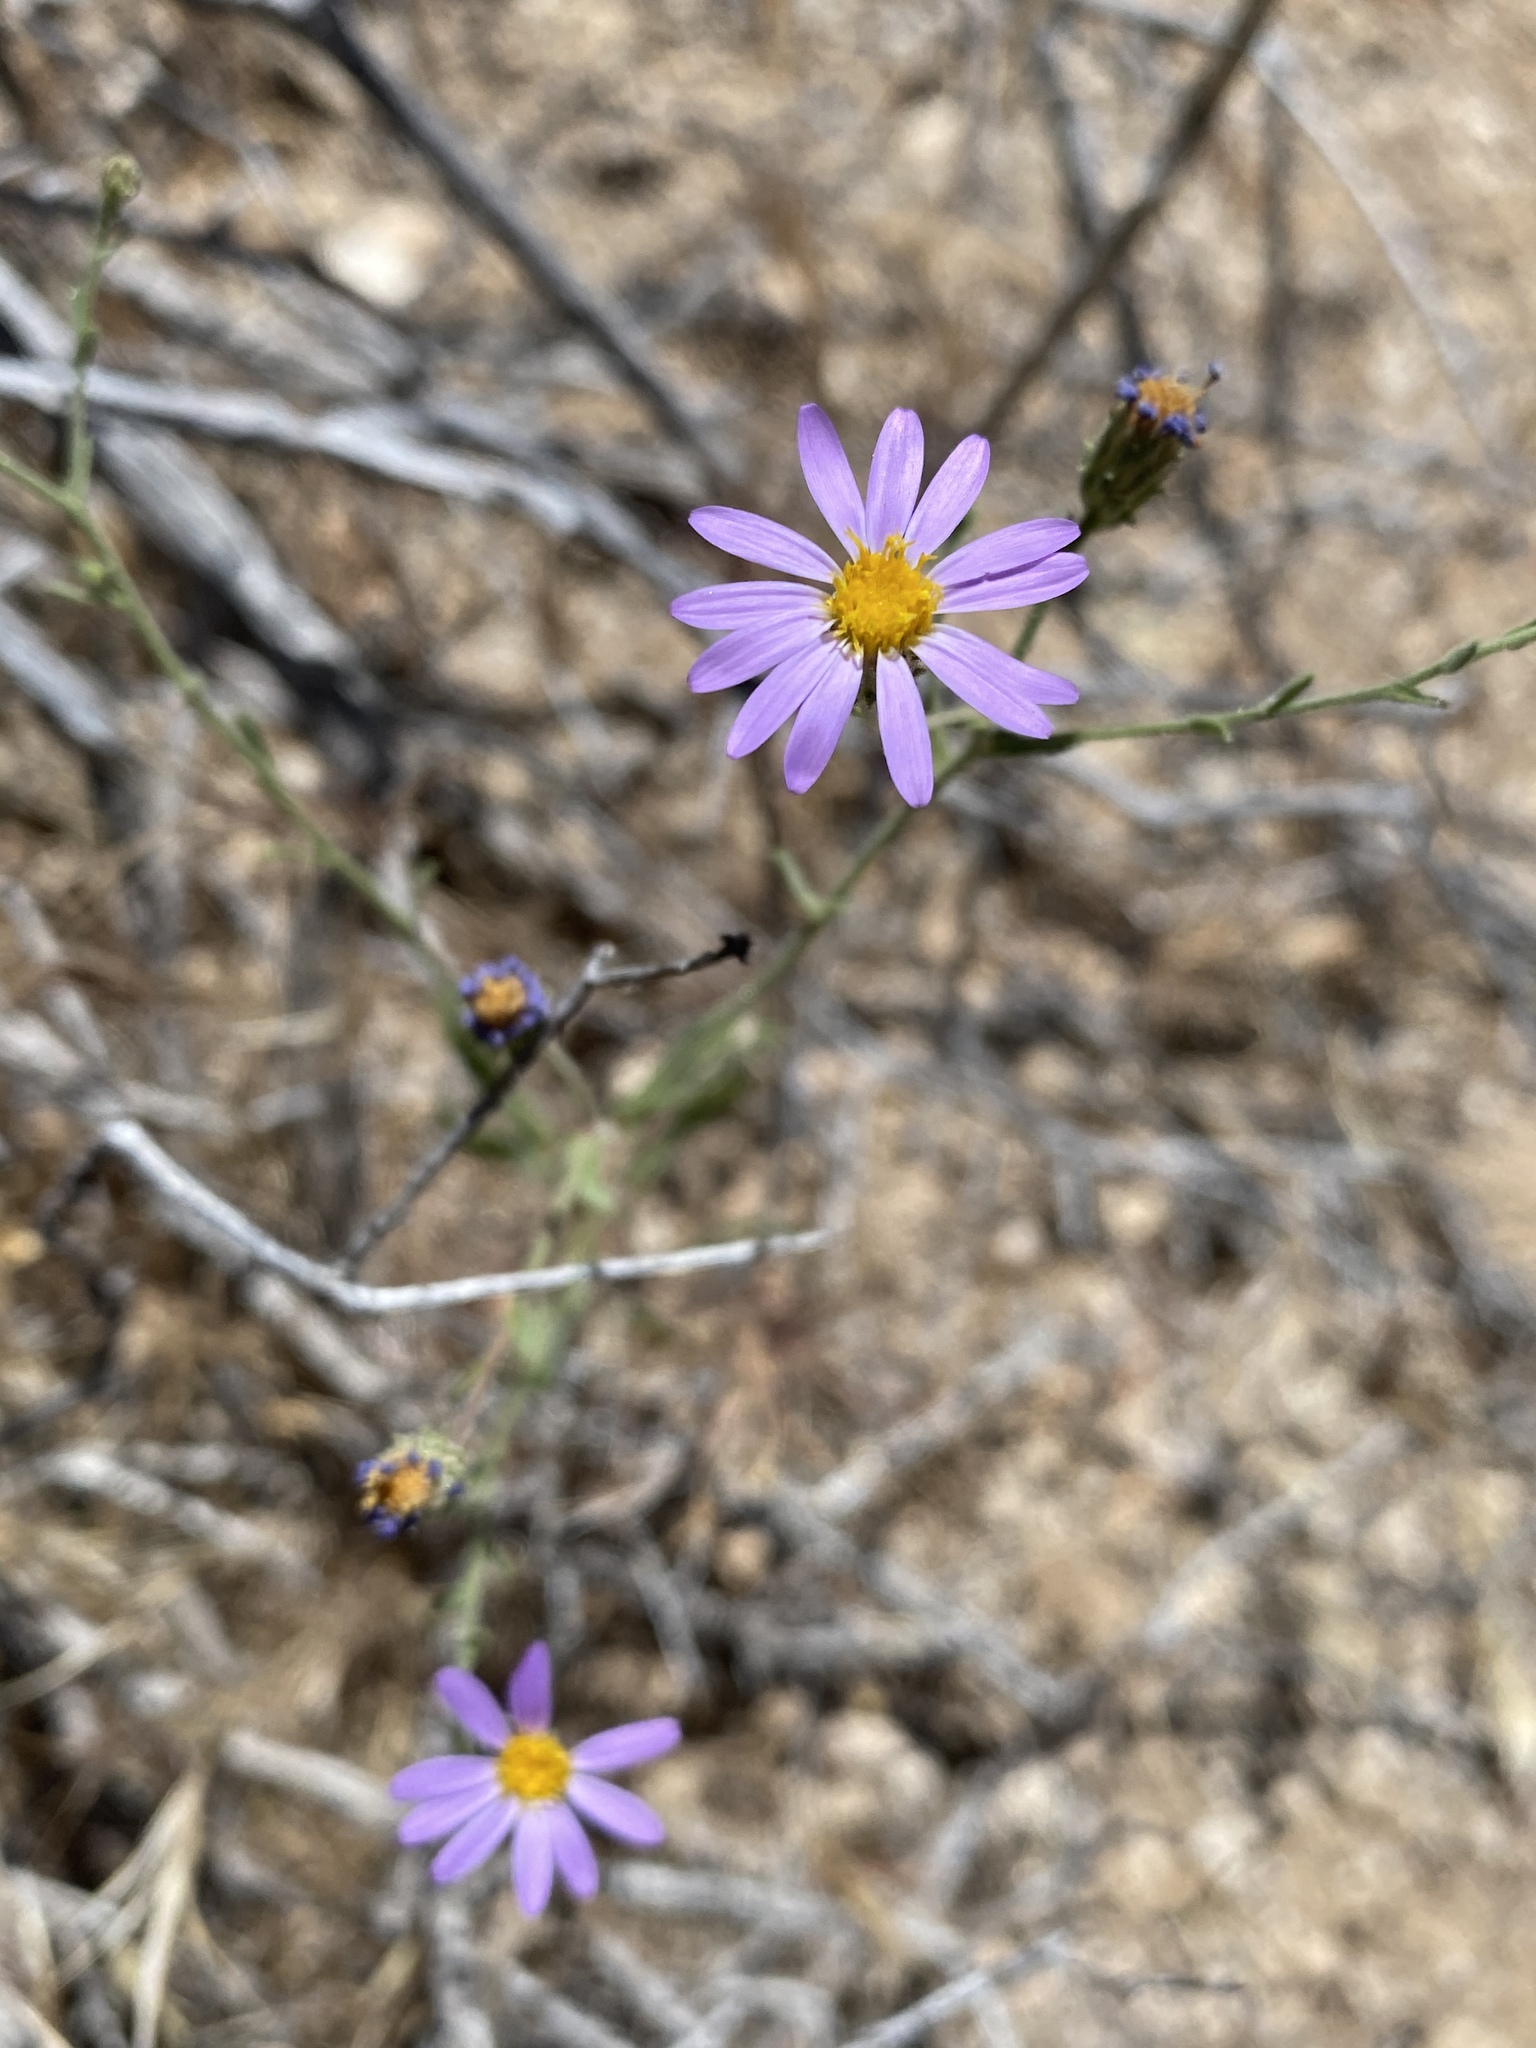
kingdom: Plantae
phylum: Tracheophyta
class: Magnoliopsida
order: Asterales
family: Asteraceae
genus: Dieteria
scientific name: Dieteria canescens
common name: Hoary-aster
